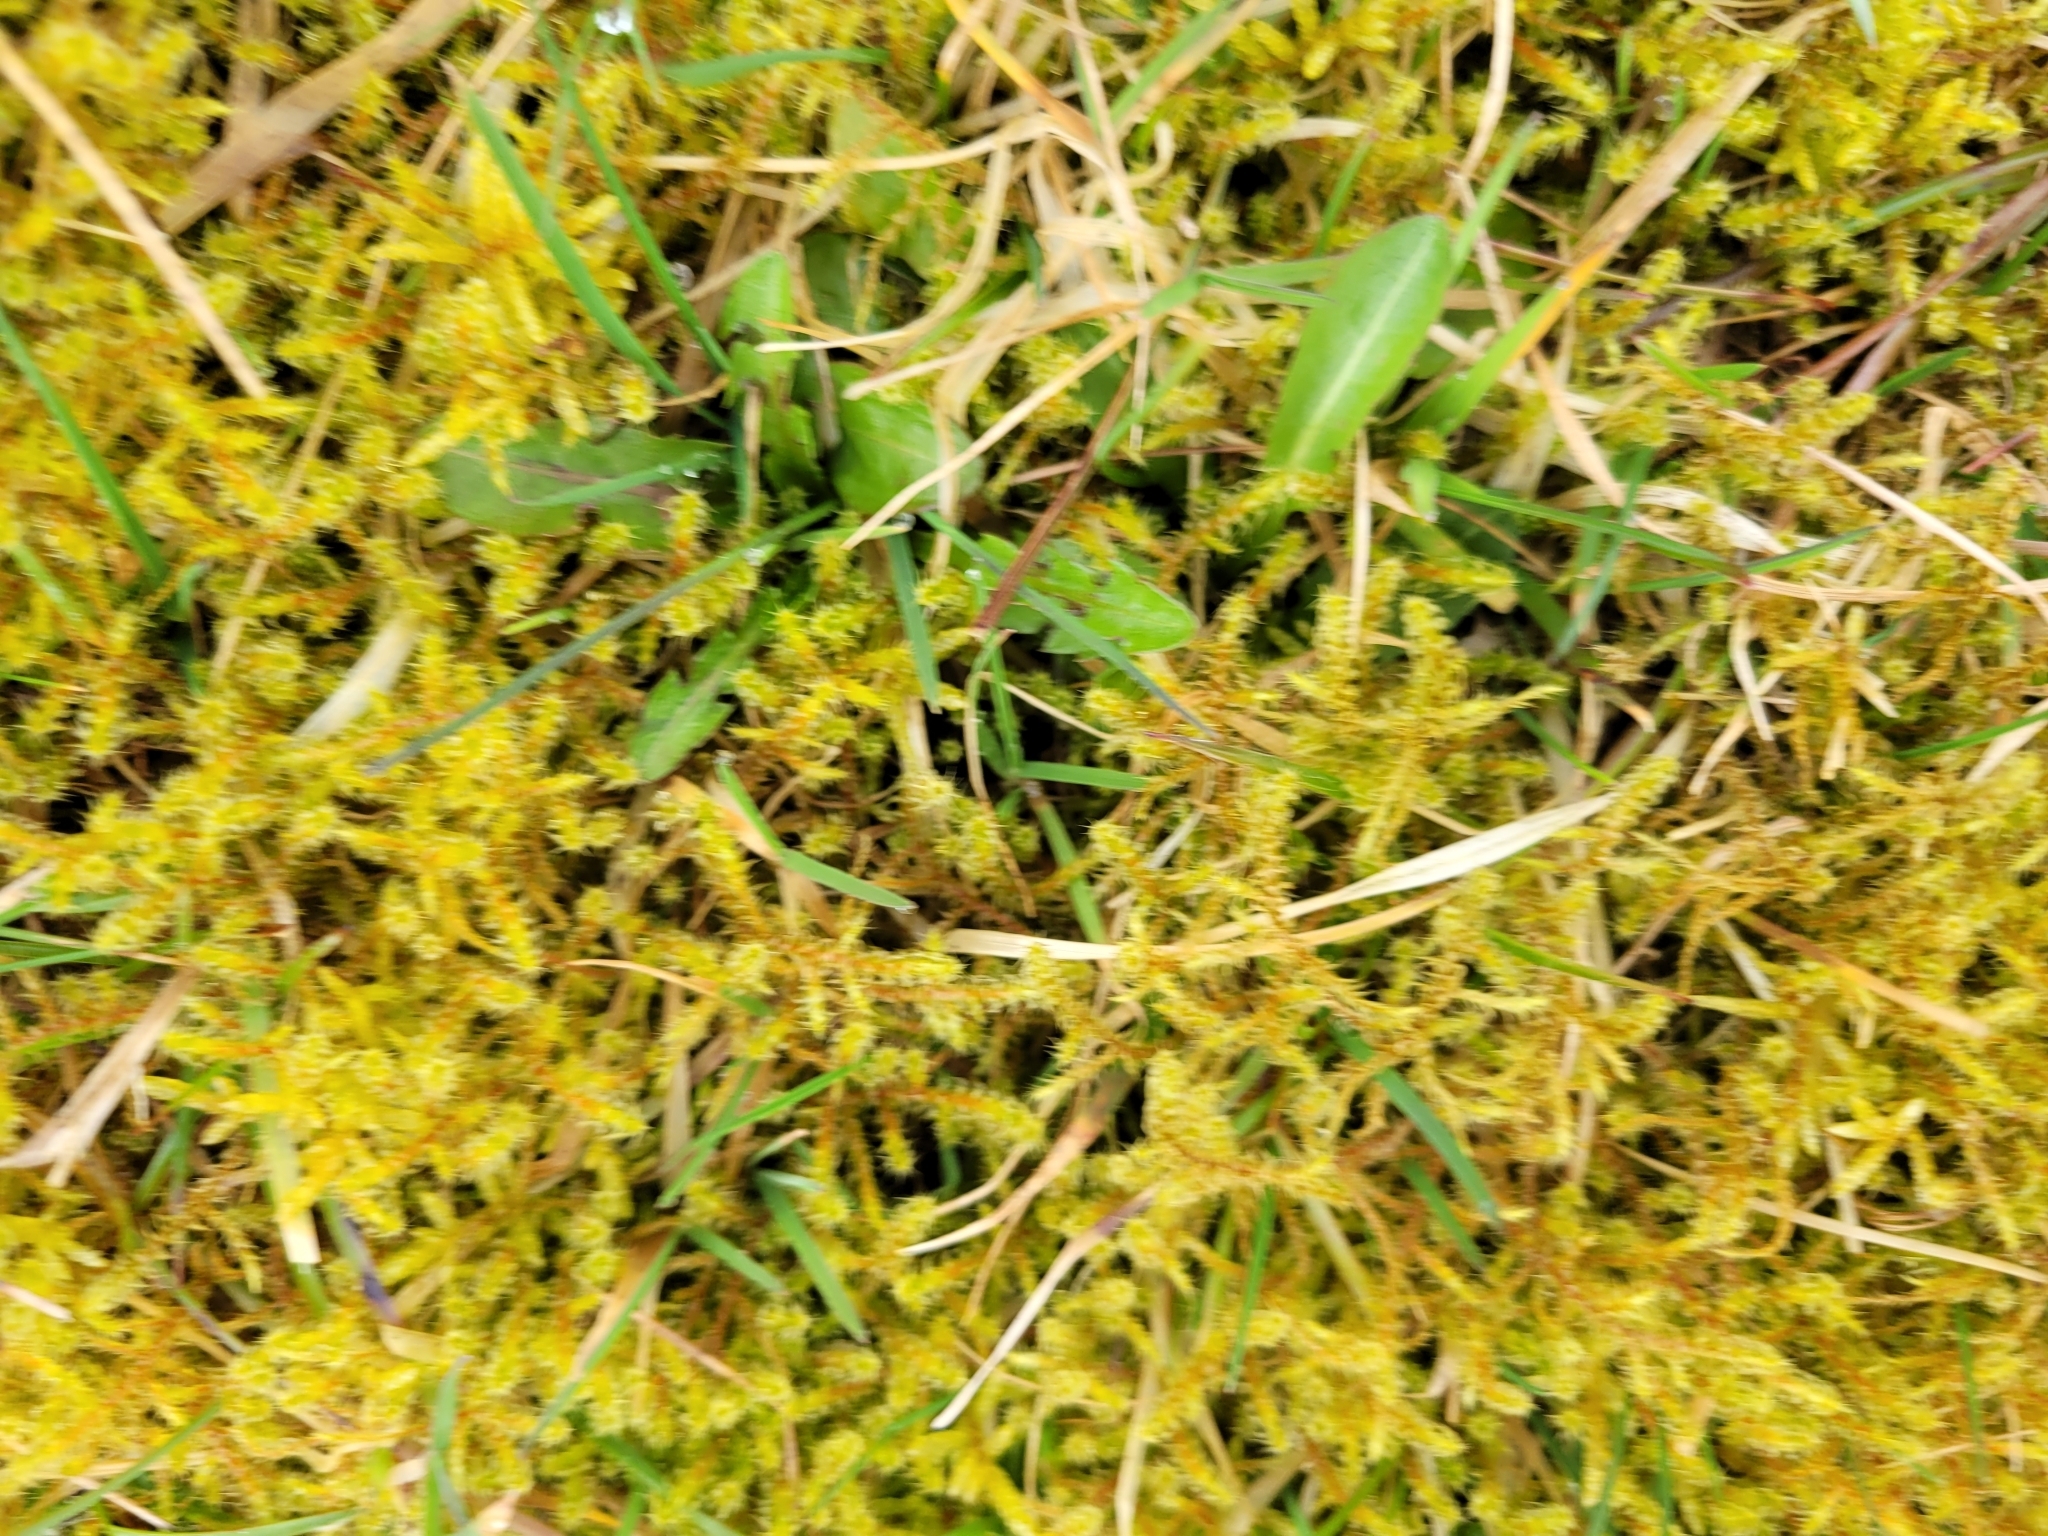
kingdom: Plantae
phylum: Bryophyta
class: Bryopsida
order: Hypnales
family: Hylocomiaceae
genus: Rhytidiadelphus
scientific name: Rhytidiadelphus squarrosus
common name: Springy turf-moss
